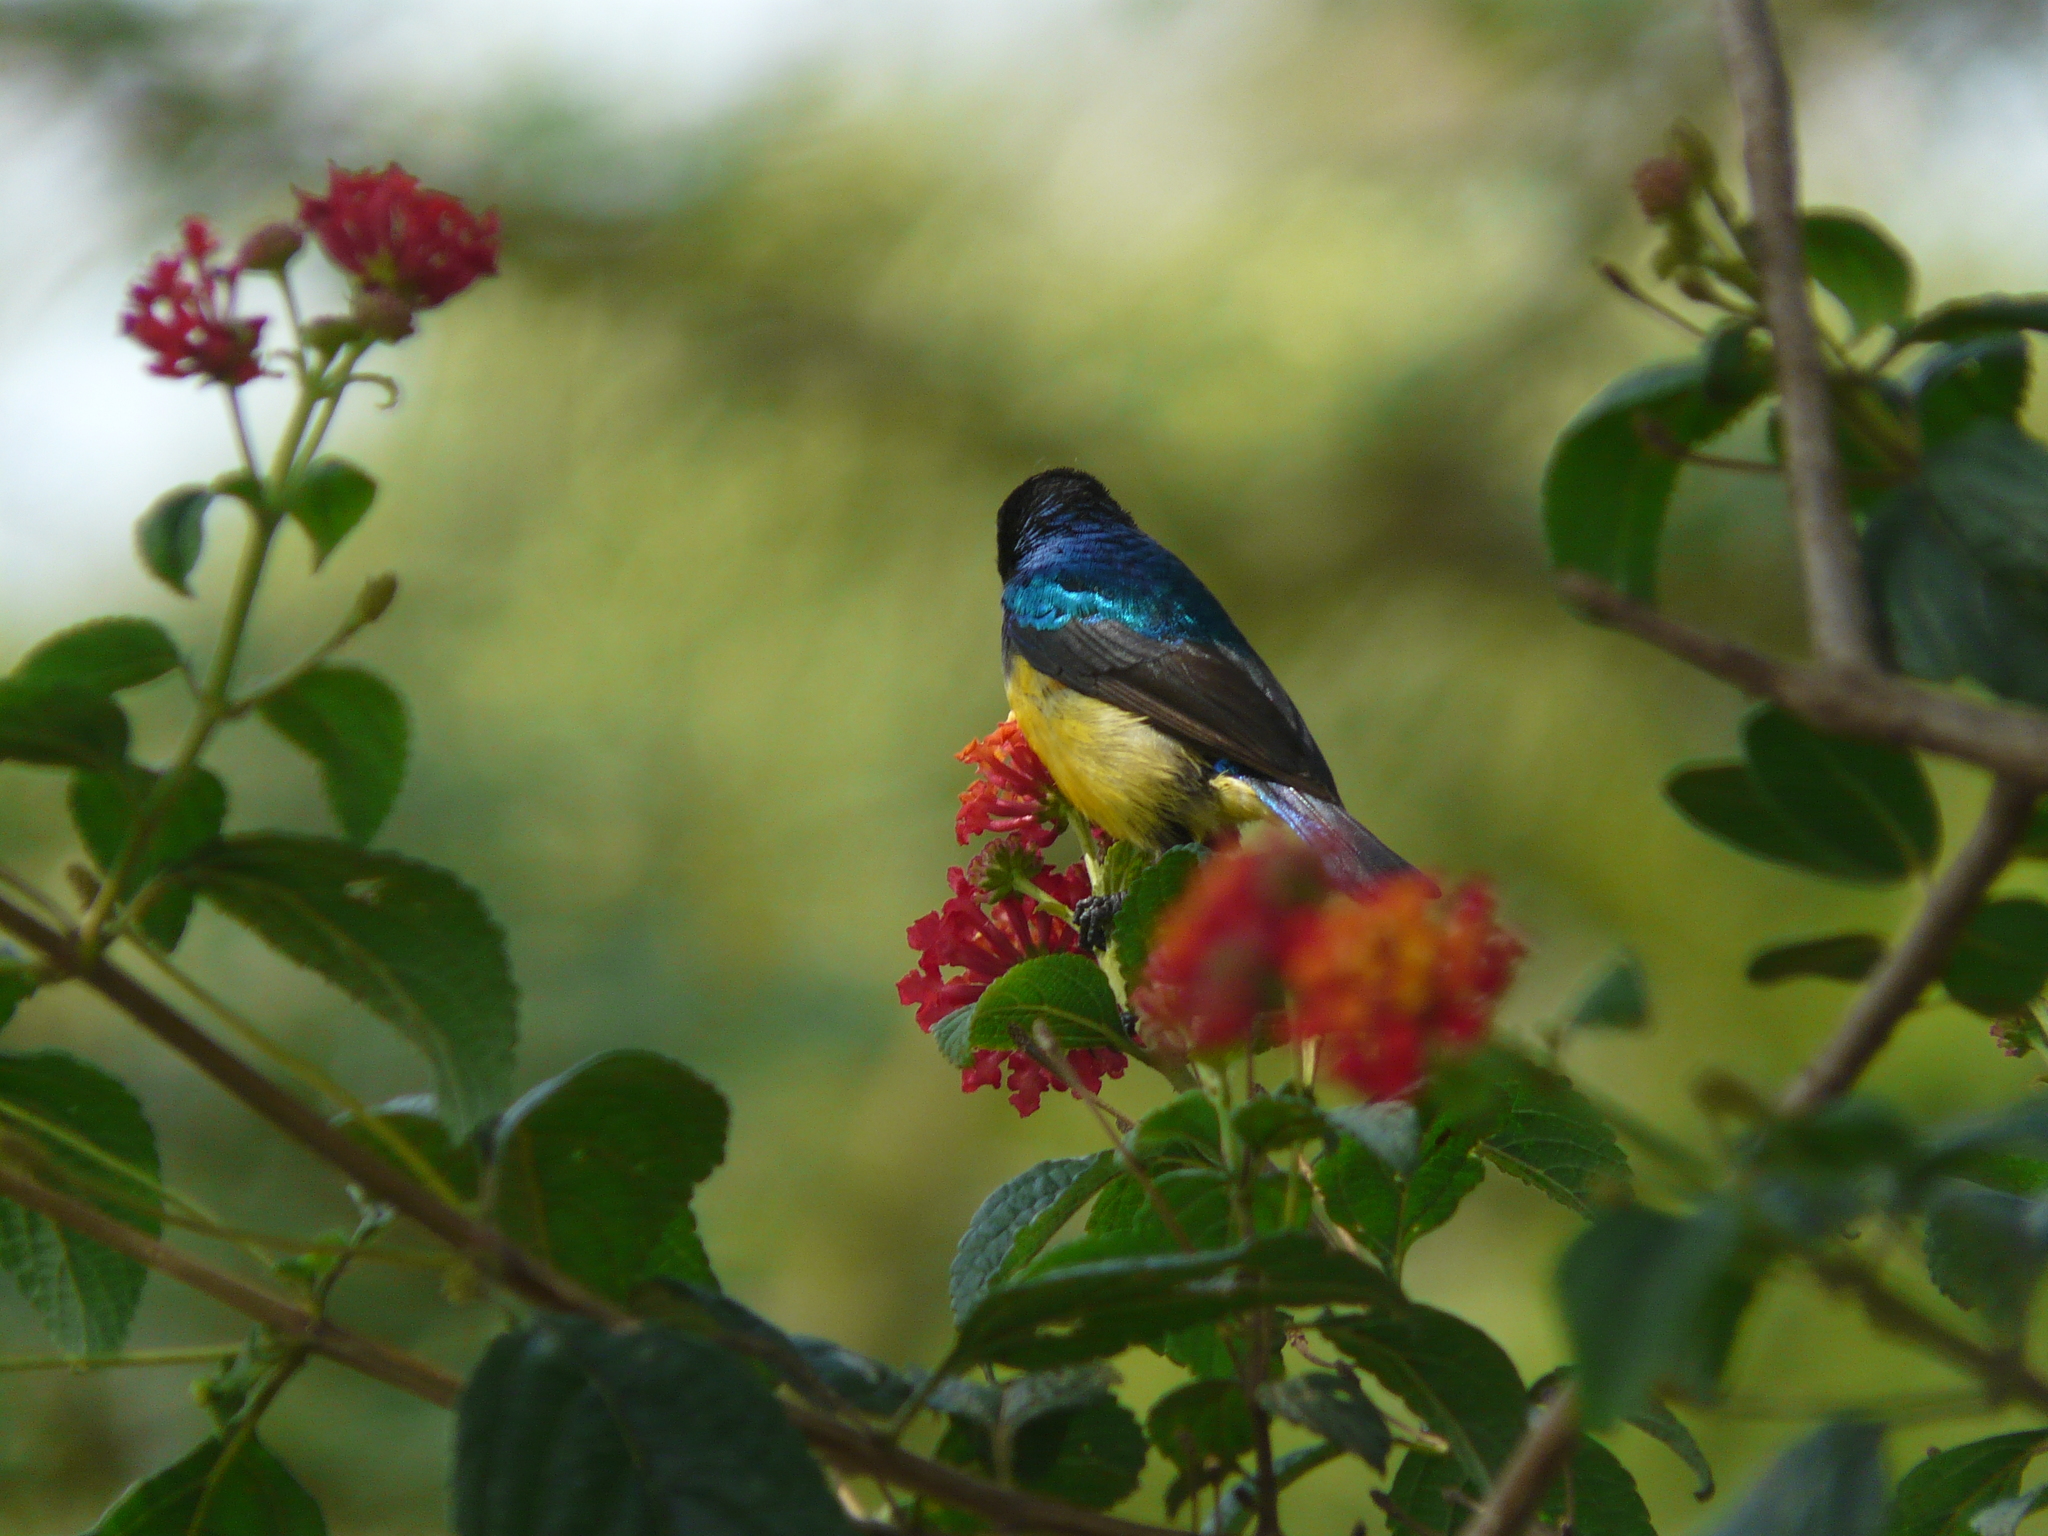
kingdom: Animalia
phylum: Chordata
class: Aves
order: Passeriformes
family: Nectariniidae
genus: Cinnyris
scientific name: Cinnyris venustus
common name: Variable sunbird
